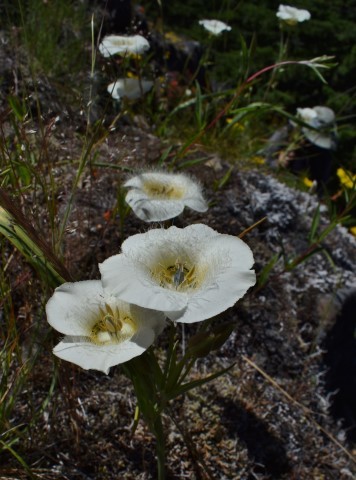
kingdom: Plantae
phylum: Tracheophyta
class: Liliopsida
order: Liliales
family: Liliaceae
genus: Calochortus
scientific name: Calochortus subalpinus
